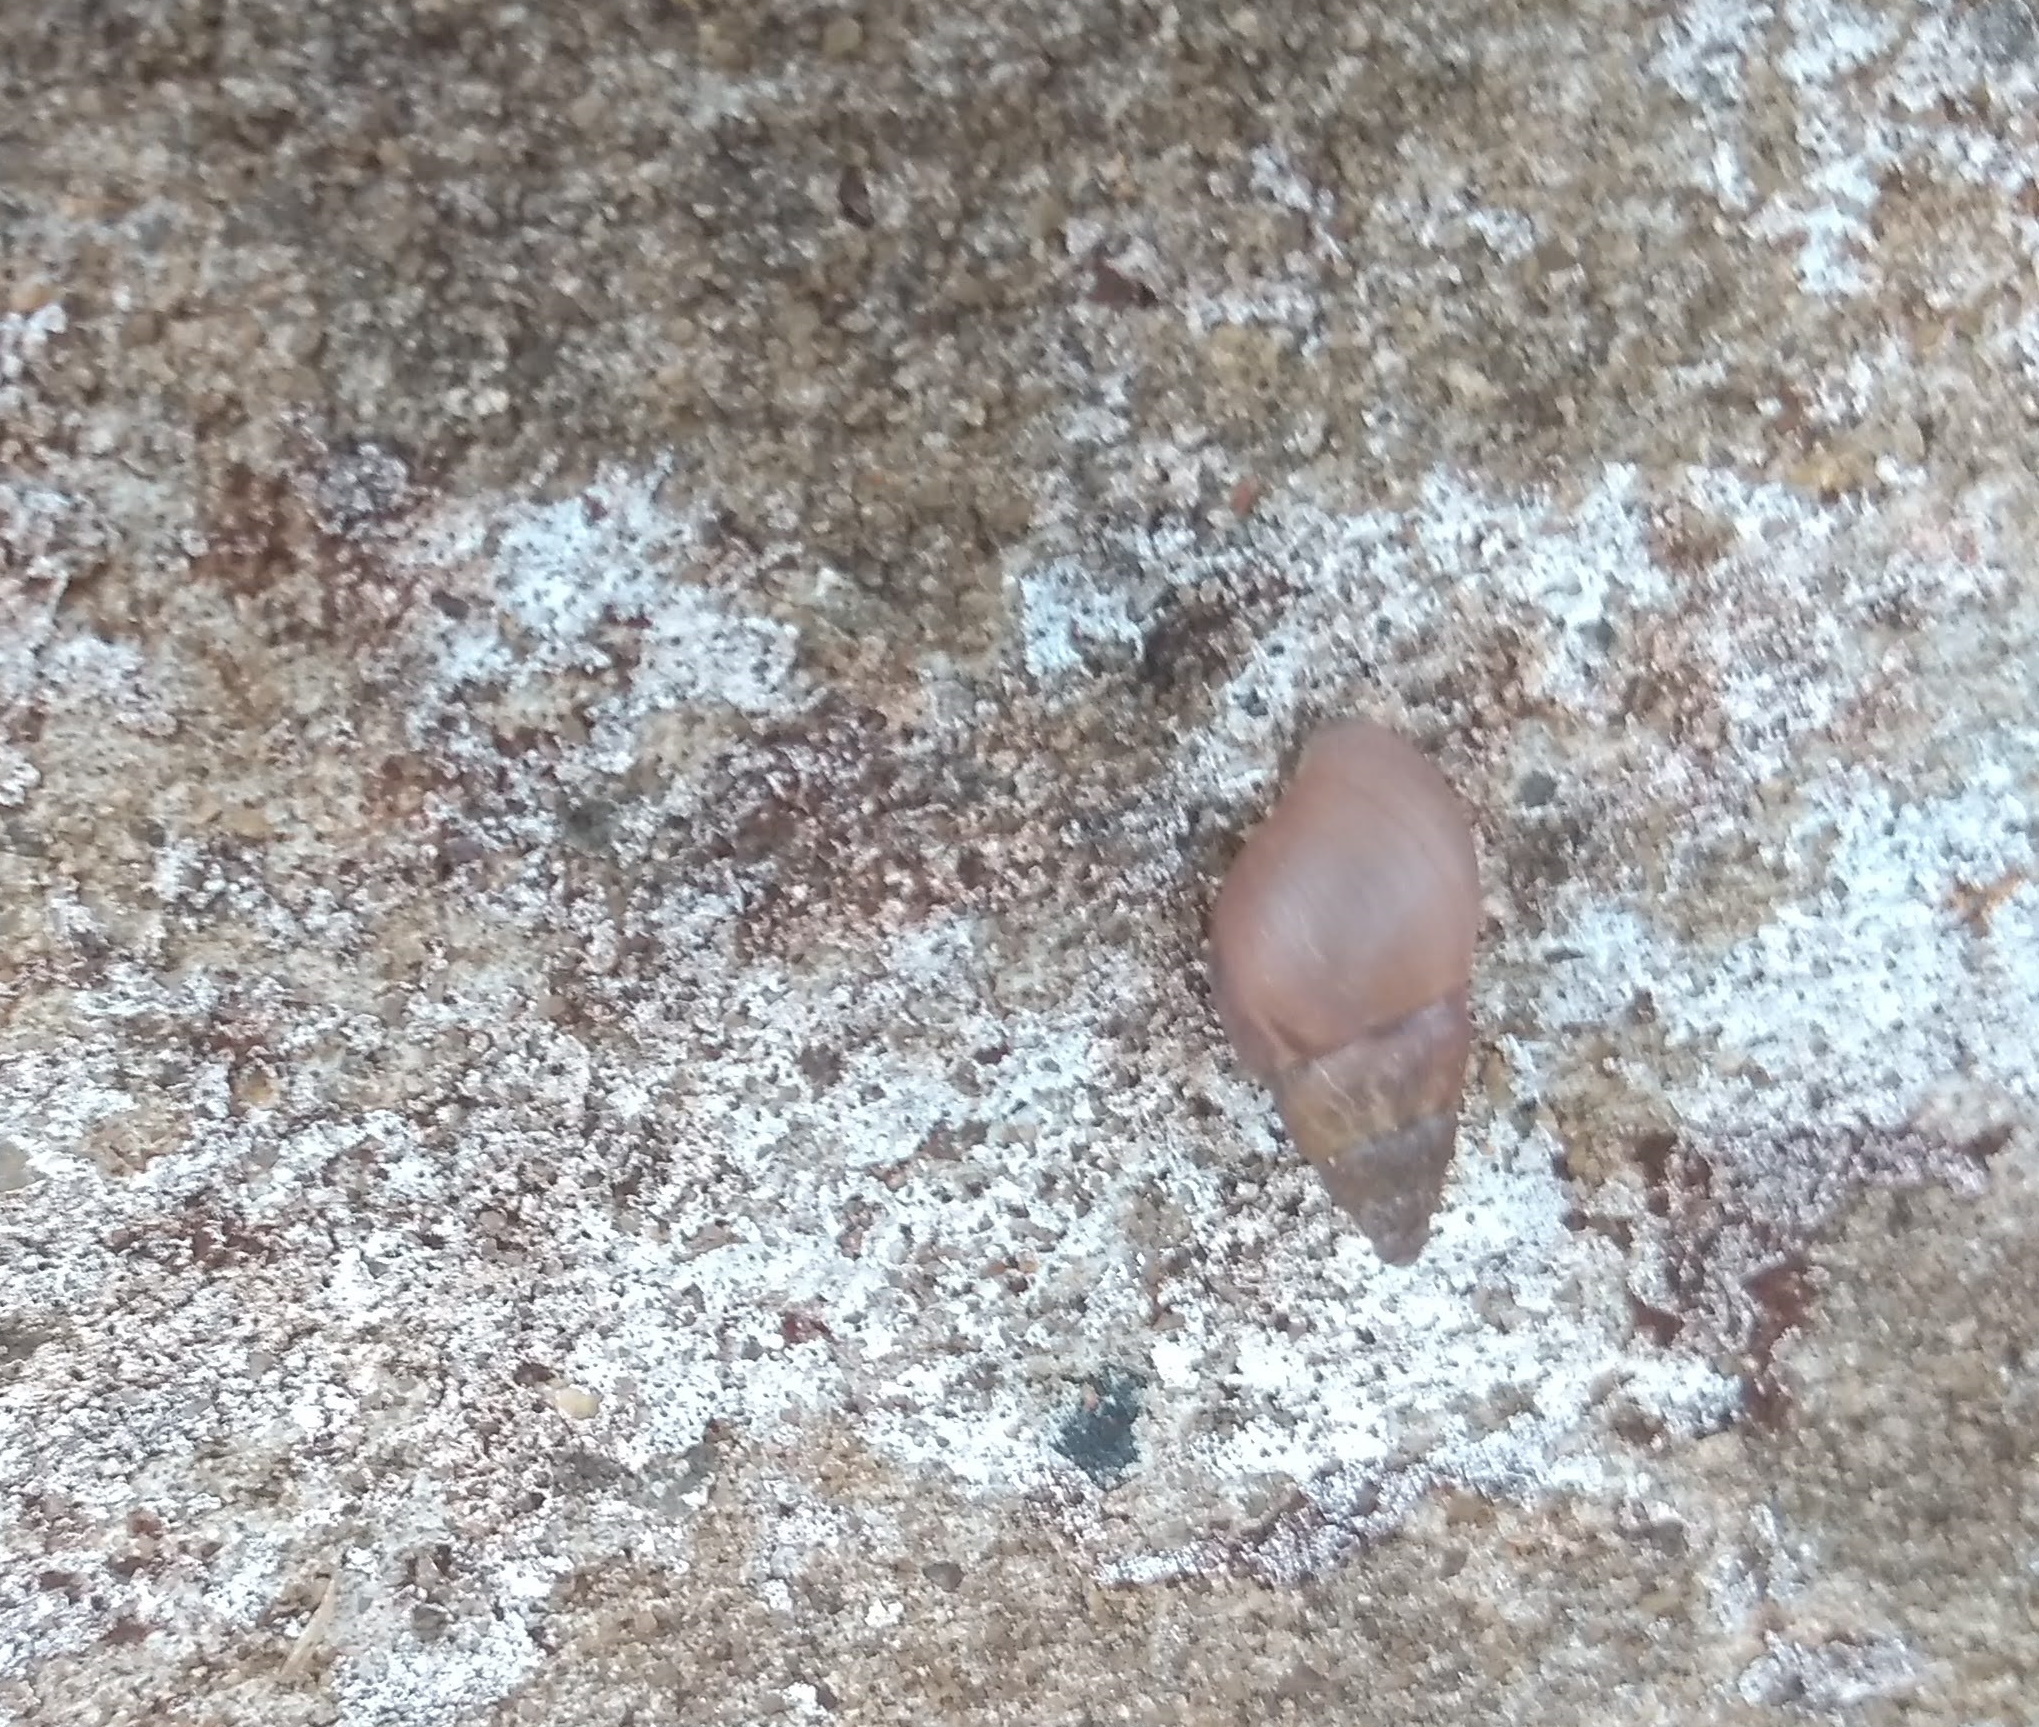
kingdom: Animalia
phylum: Mollusca
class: Gastropoda
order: Stylommatophora
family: Bulimulidae
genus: Bulimulus
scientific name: Bulimulus tenuissimus
